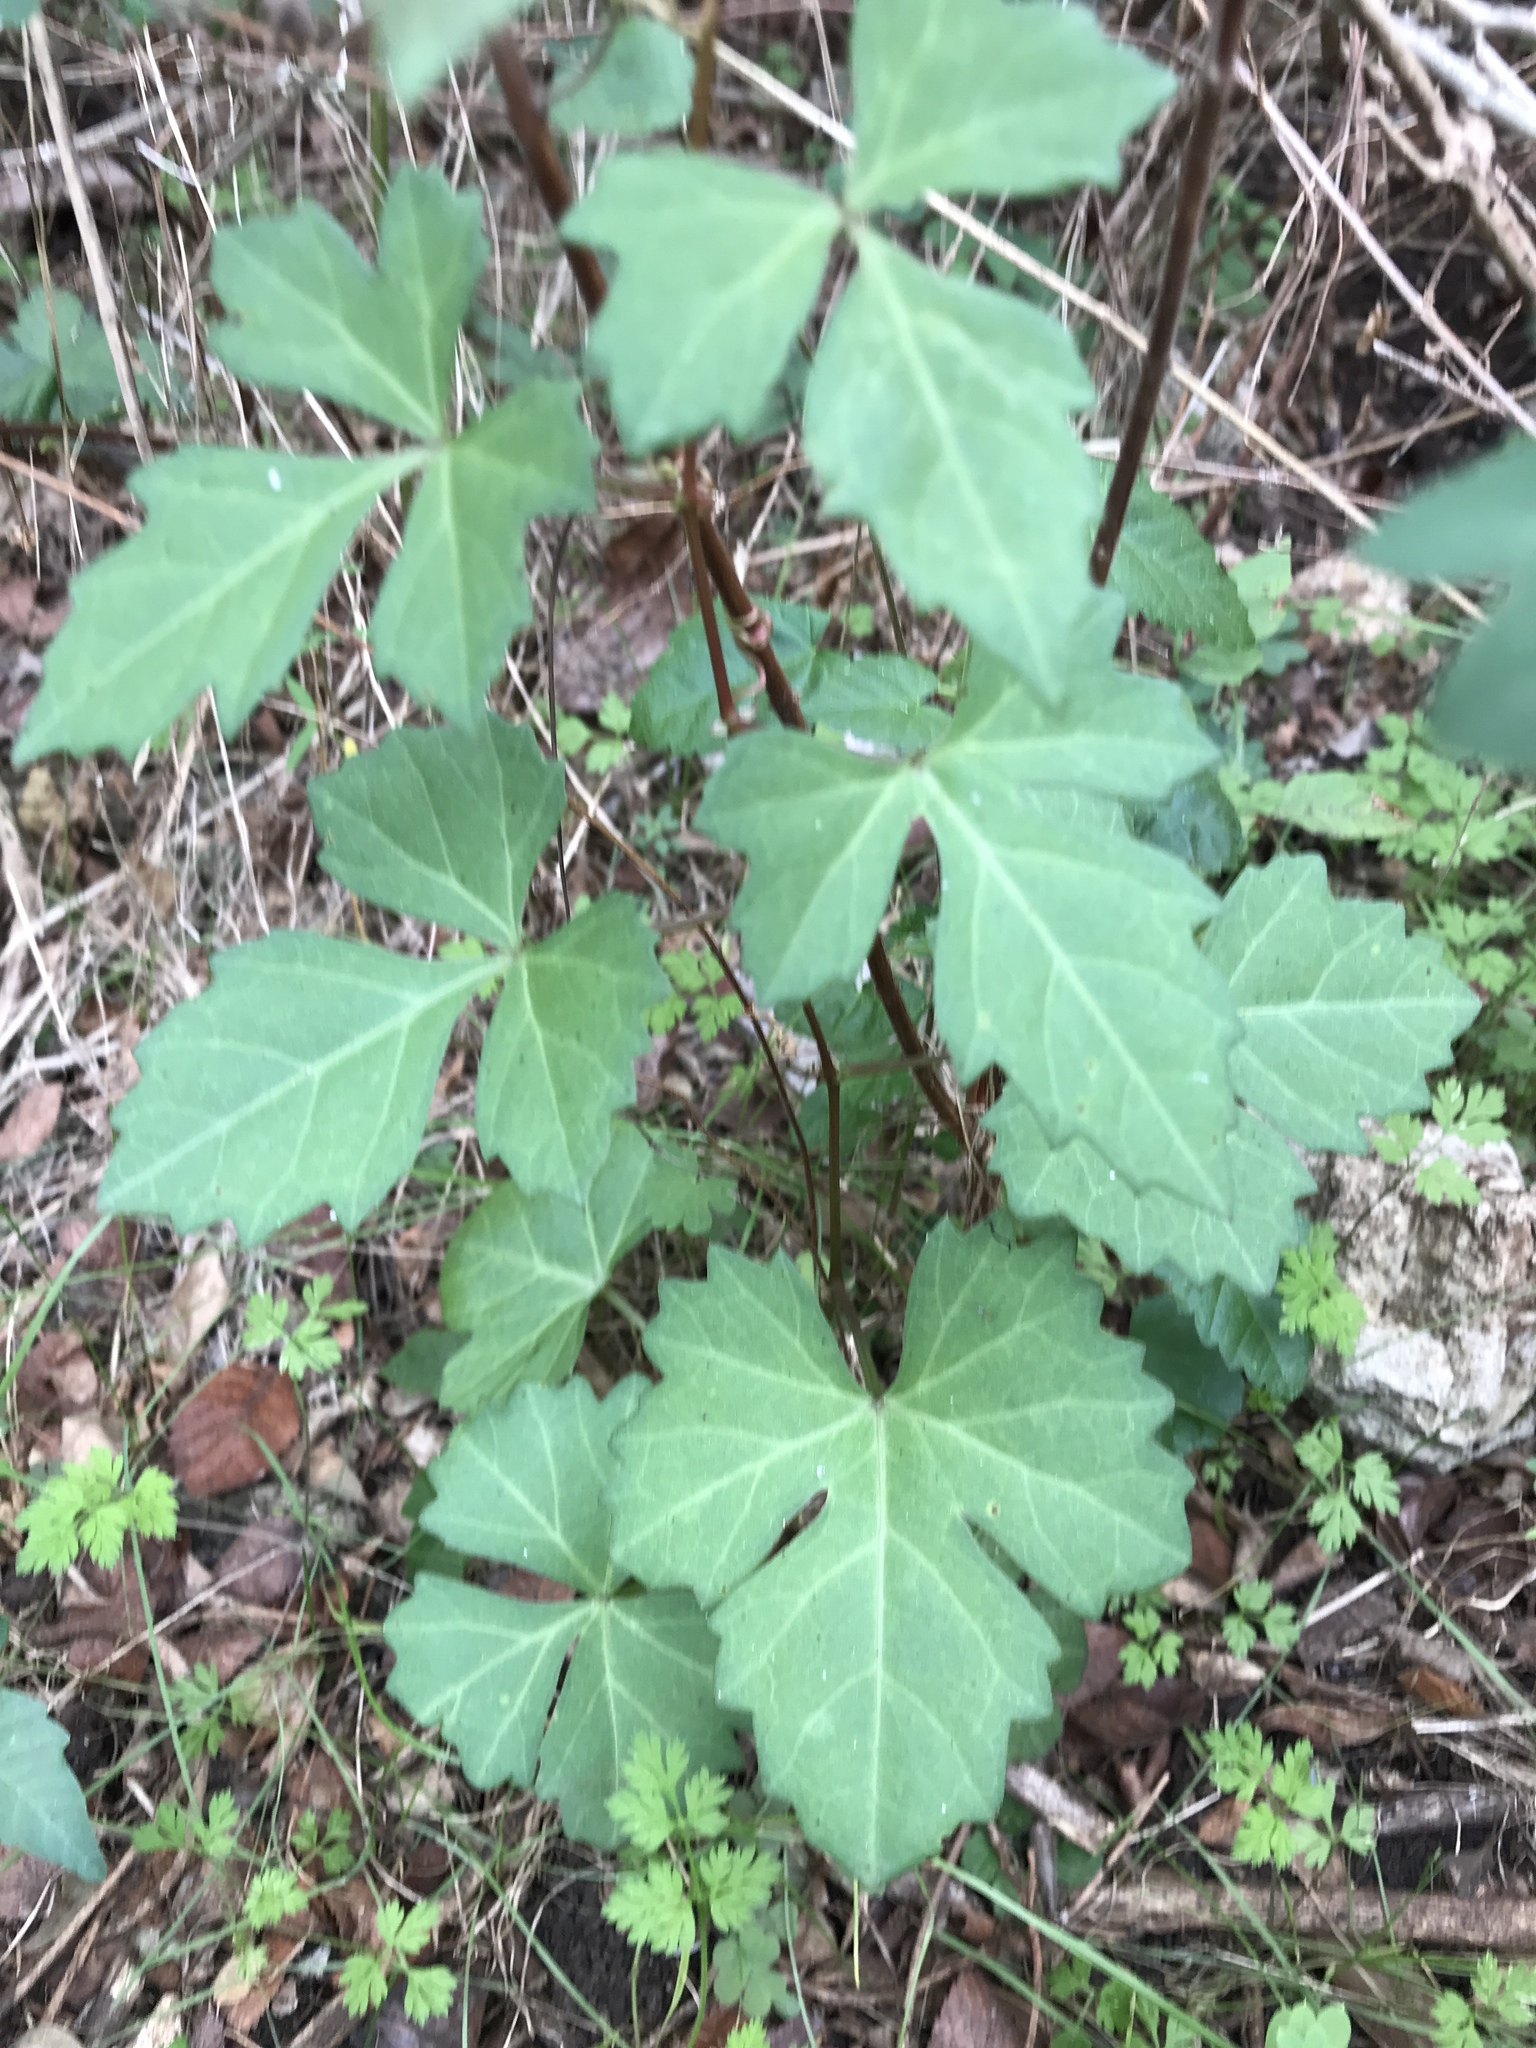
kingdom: Plantae
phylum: Tracheophyta
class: Magnoliopsida
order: Vitales
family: Vitaceae
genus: Cissus
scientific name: Cissus trifoliata
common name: Vine-sorrel
